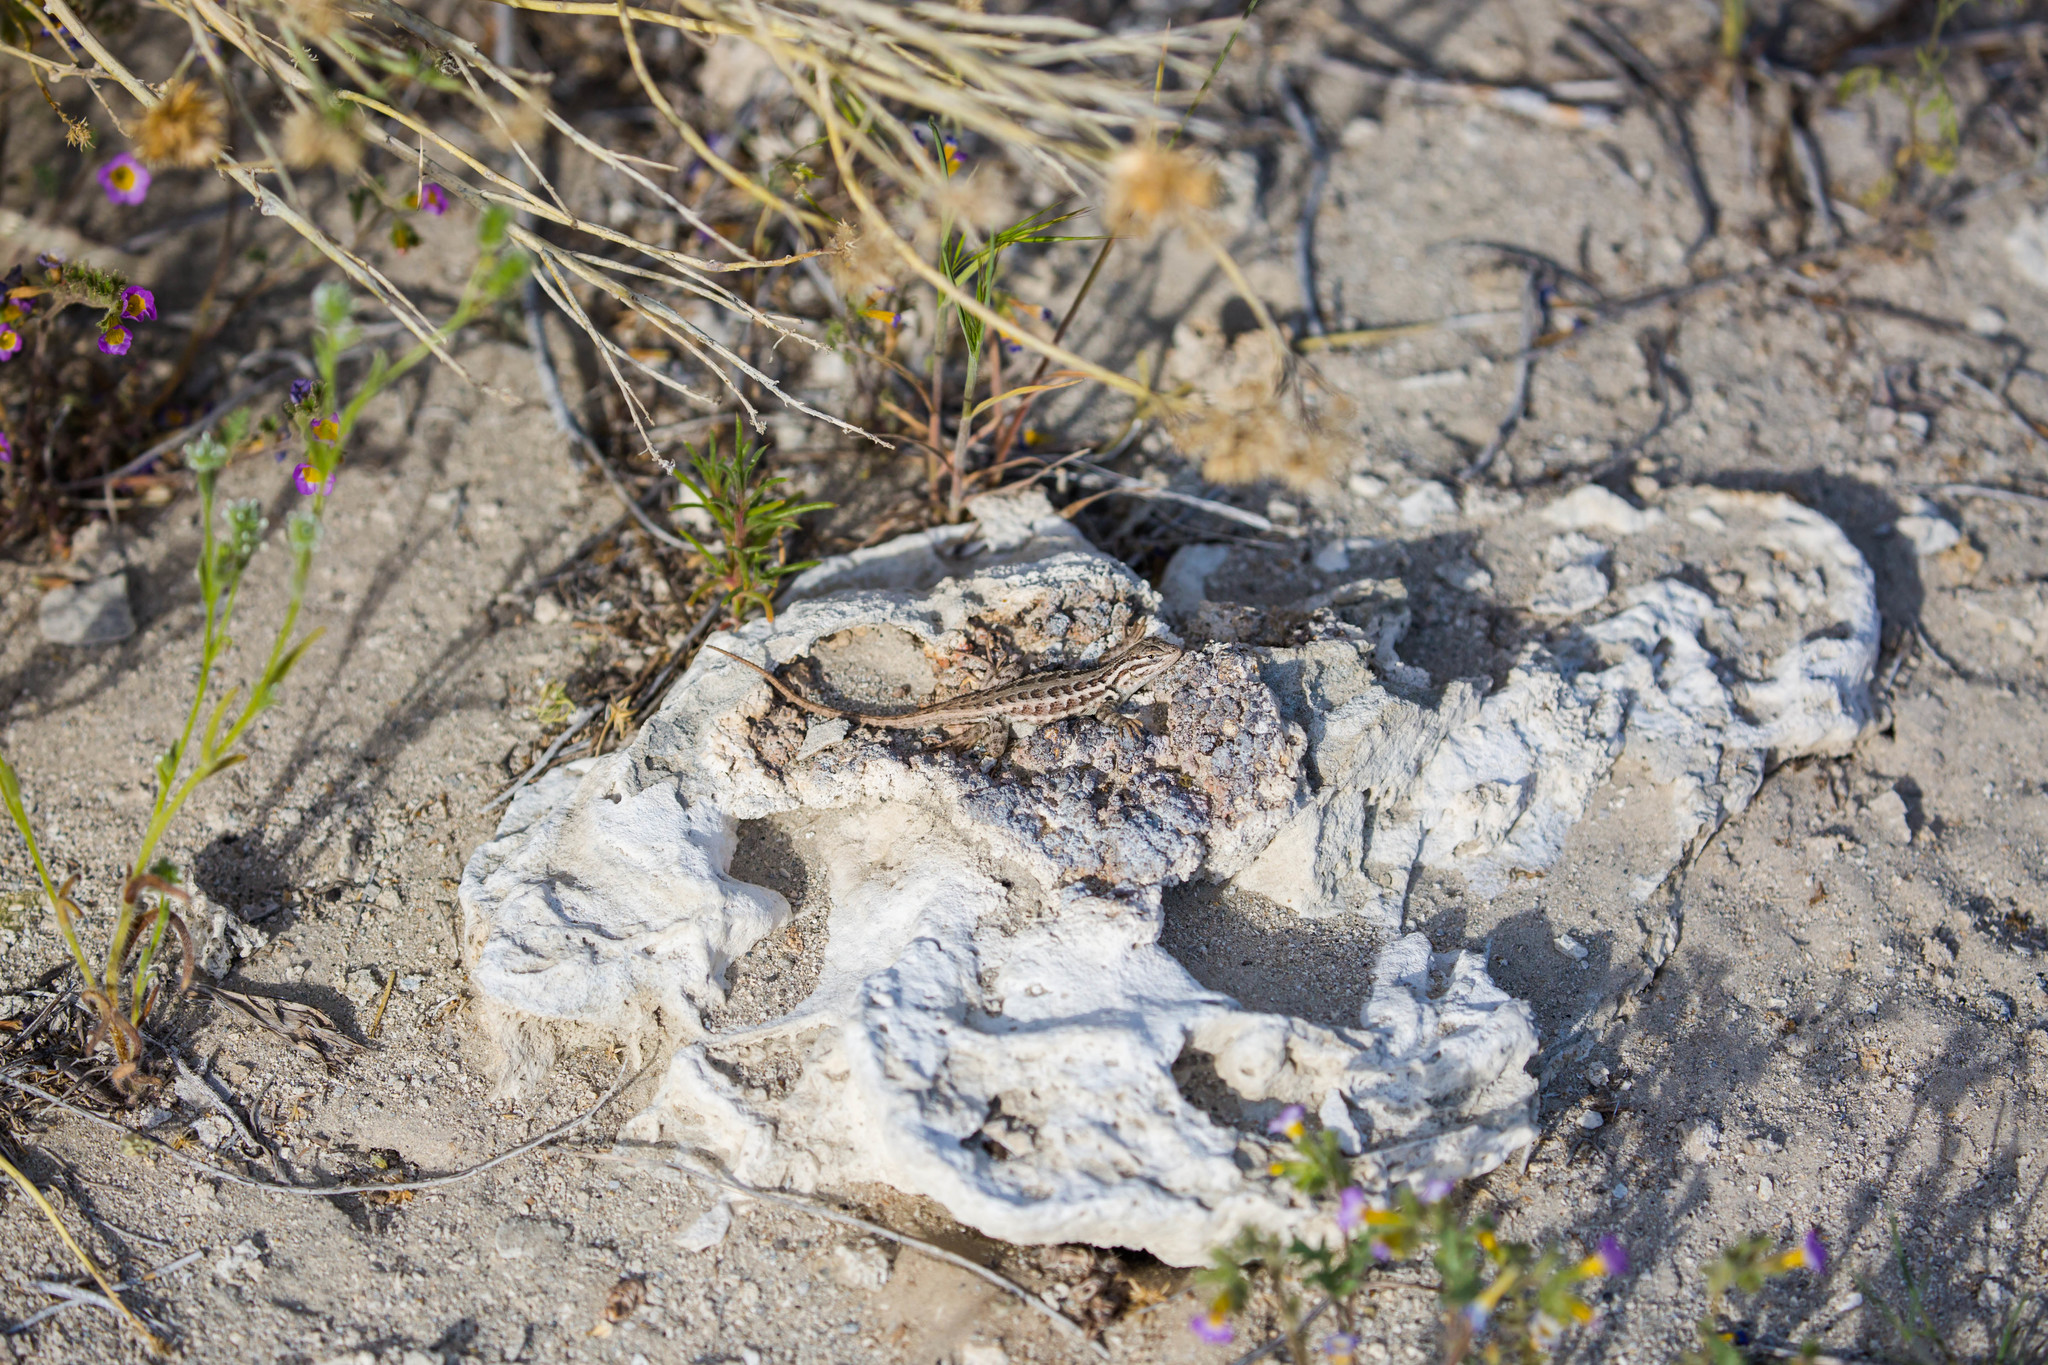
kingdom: Animalia
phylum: Chordata
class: Squamata
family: Phrynosomatidae
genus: Sceloporus
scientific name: Sceloporus graciosus
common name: Sagebrush lizard
